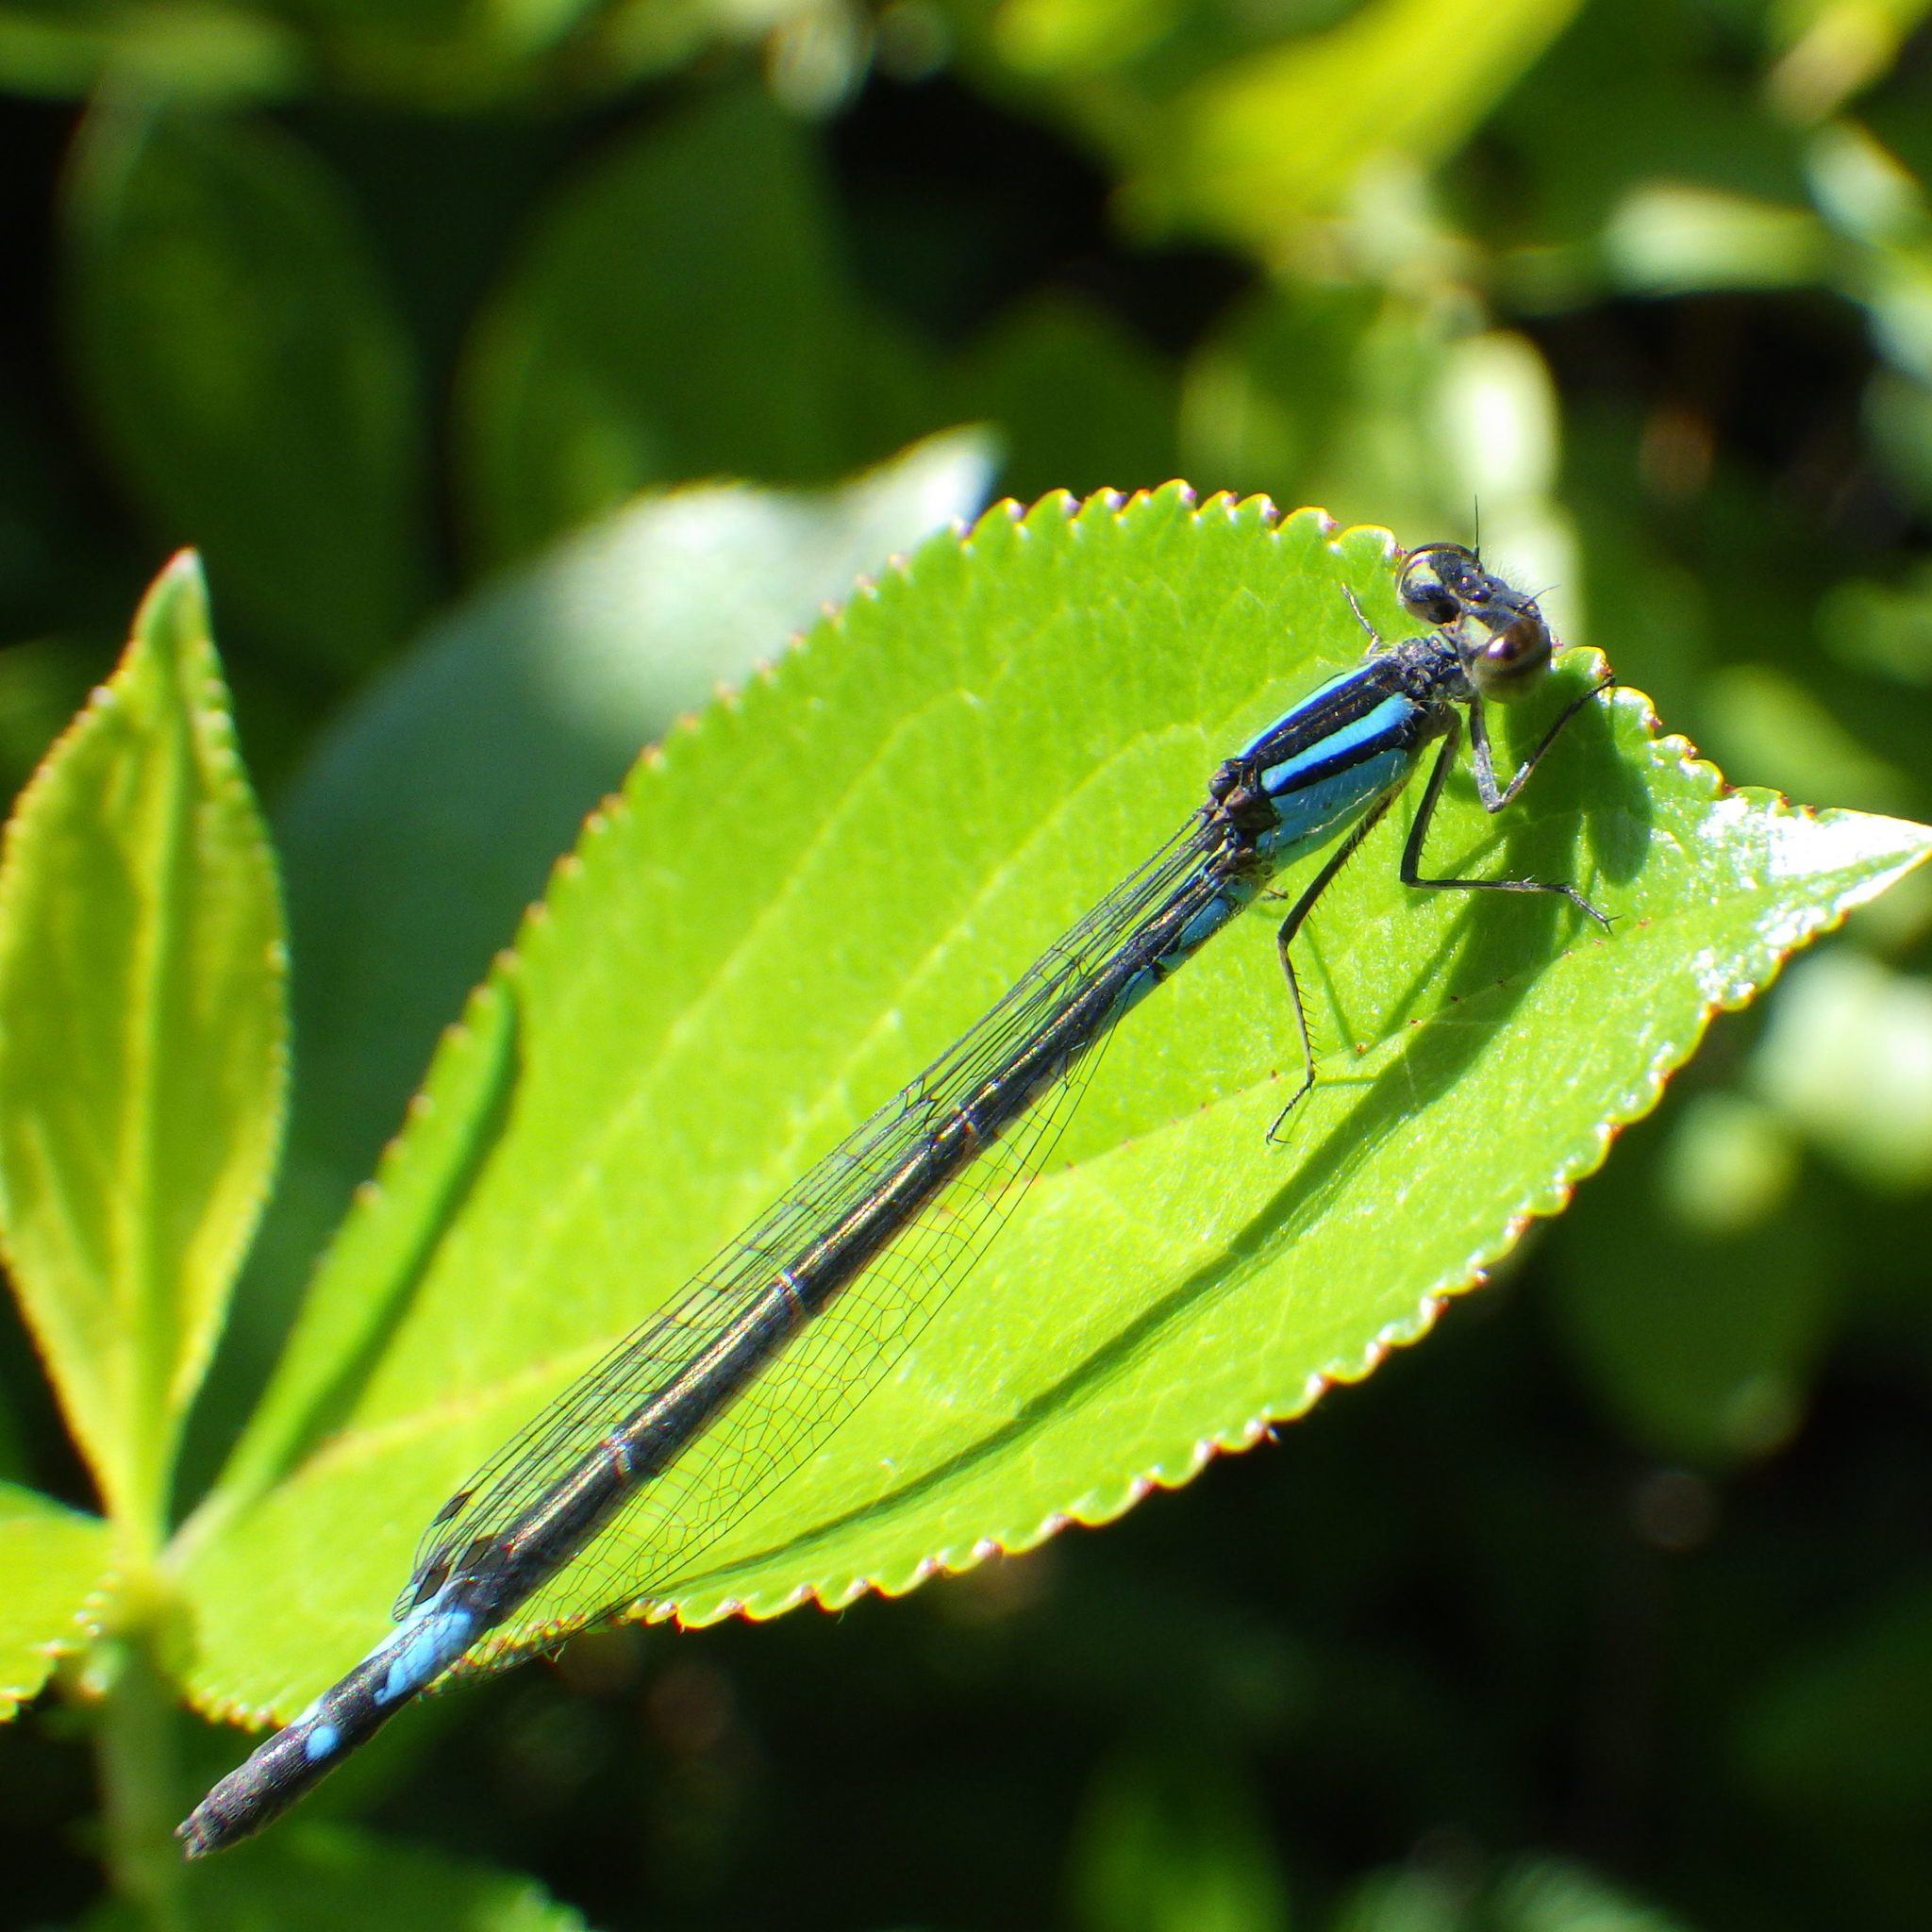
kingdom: Animalia
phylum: Arthropoda
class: Insecta
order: Odonata
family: Coenagrionidae
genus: Enallagma
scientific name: Enallagma aspersum
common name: Azure bluet
